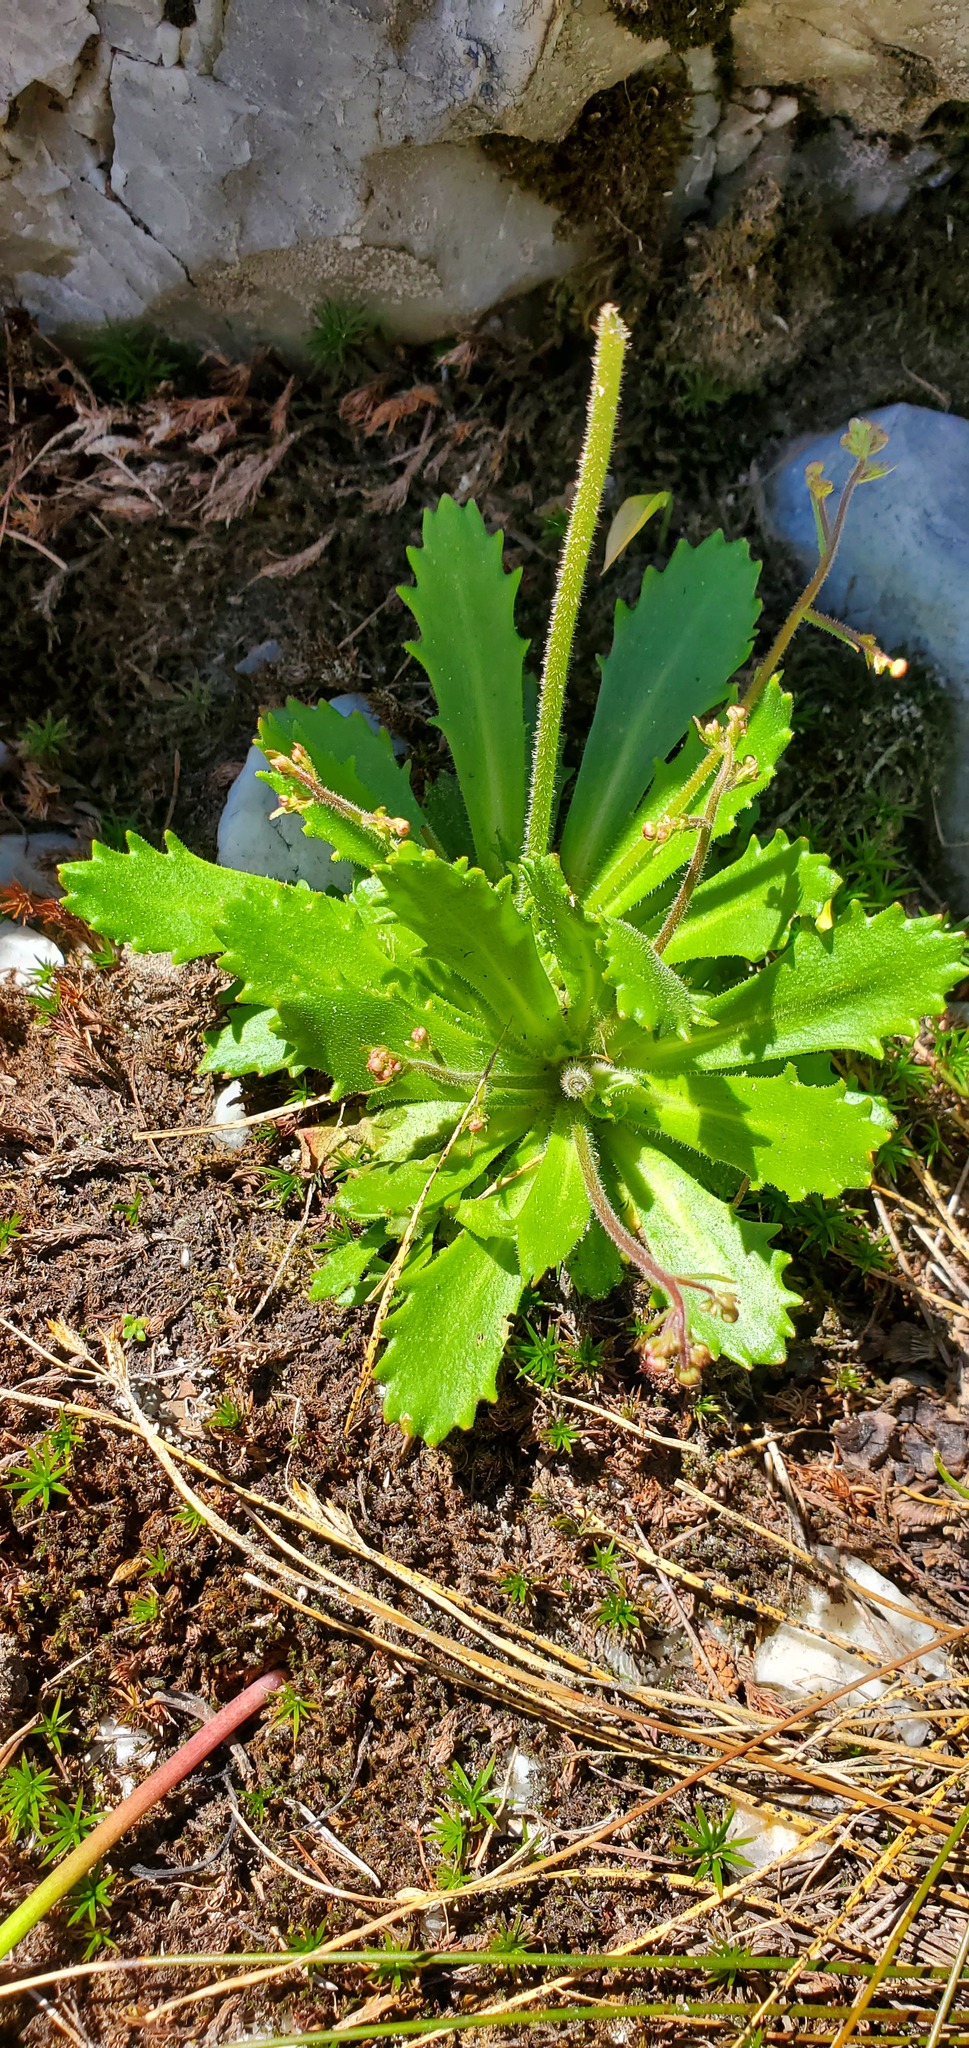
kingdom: Plantae
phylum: Tracheophyta
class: Magnoliopsida
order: Saxifragales
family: Saxifragaceae
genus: Micranthes
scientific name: Micranthes ferruginea
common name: Rusty saxifrage
